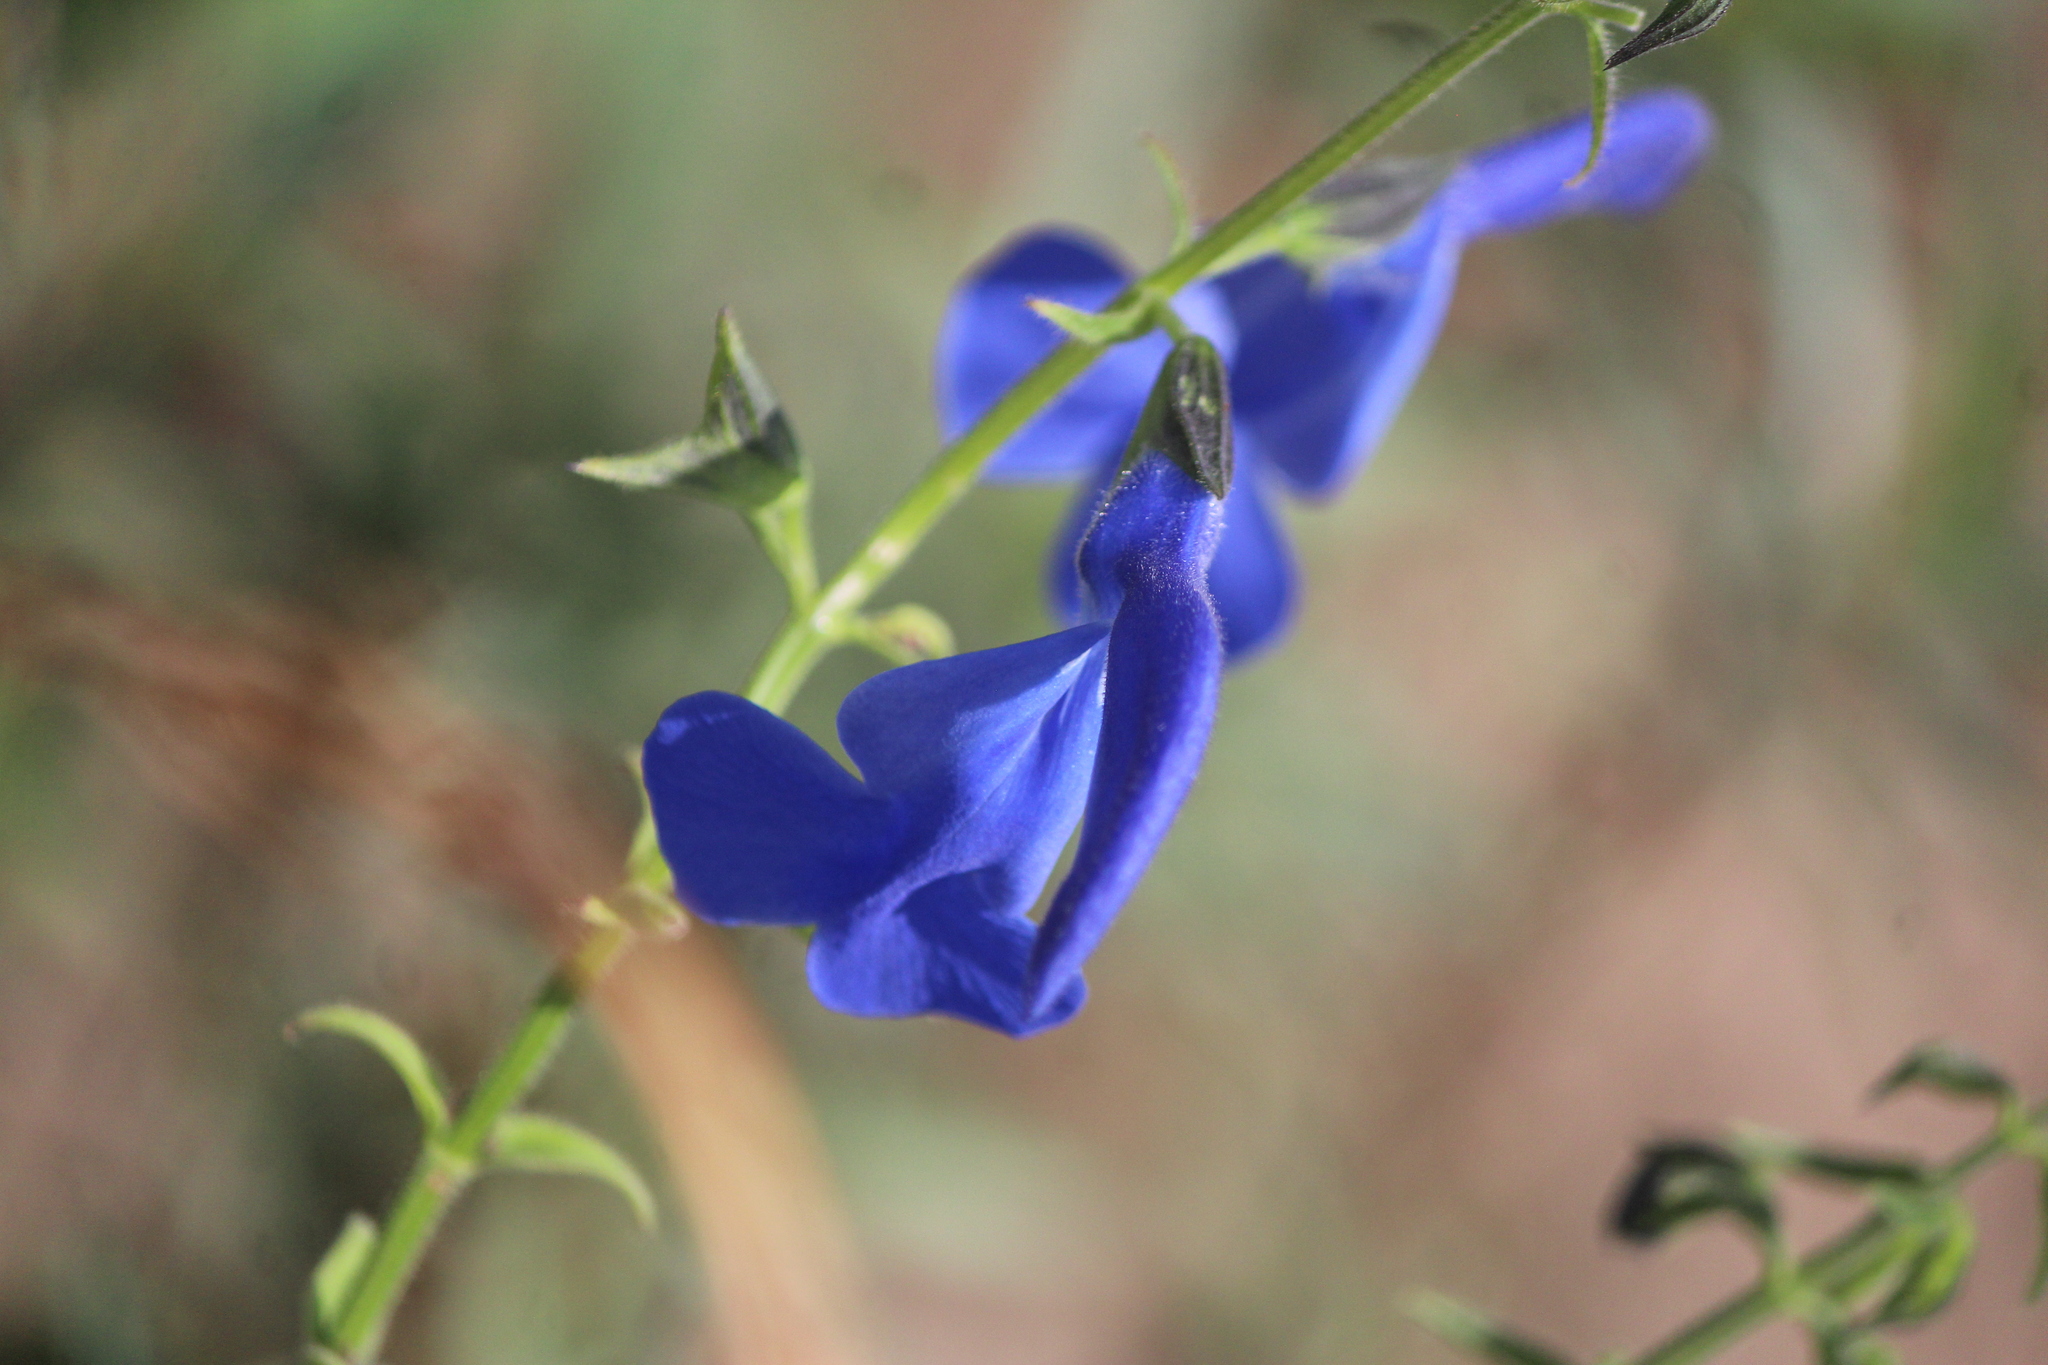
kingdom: Plantae
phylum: Tracheophyta
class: Magnoliopsida
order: Lamiales
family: Lamiaceae
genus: Salvia
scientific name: Salvia patens
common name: Blue sage
